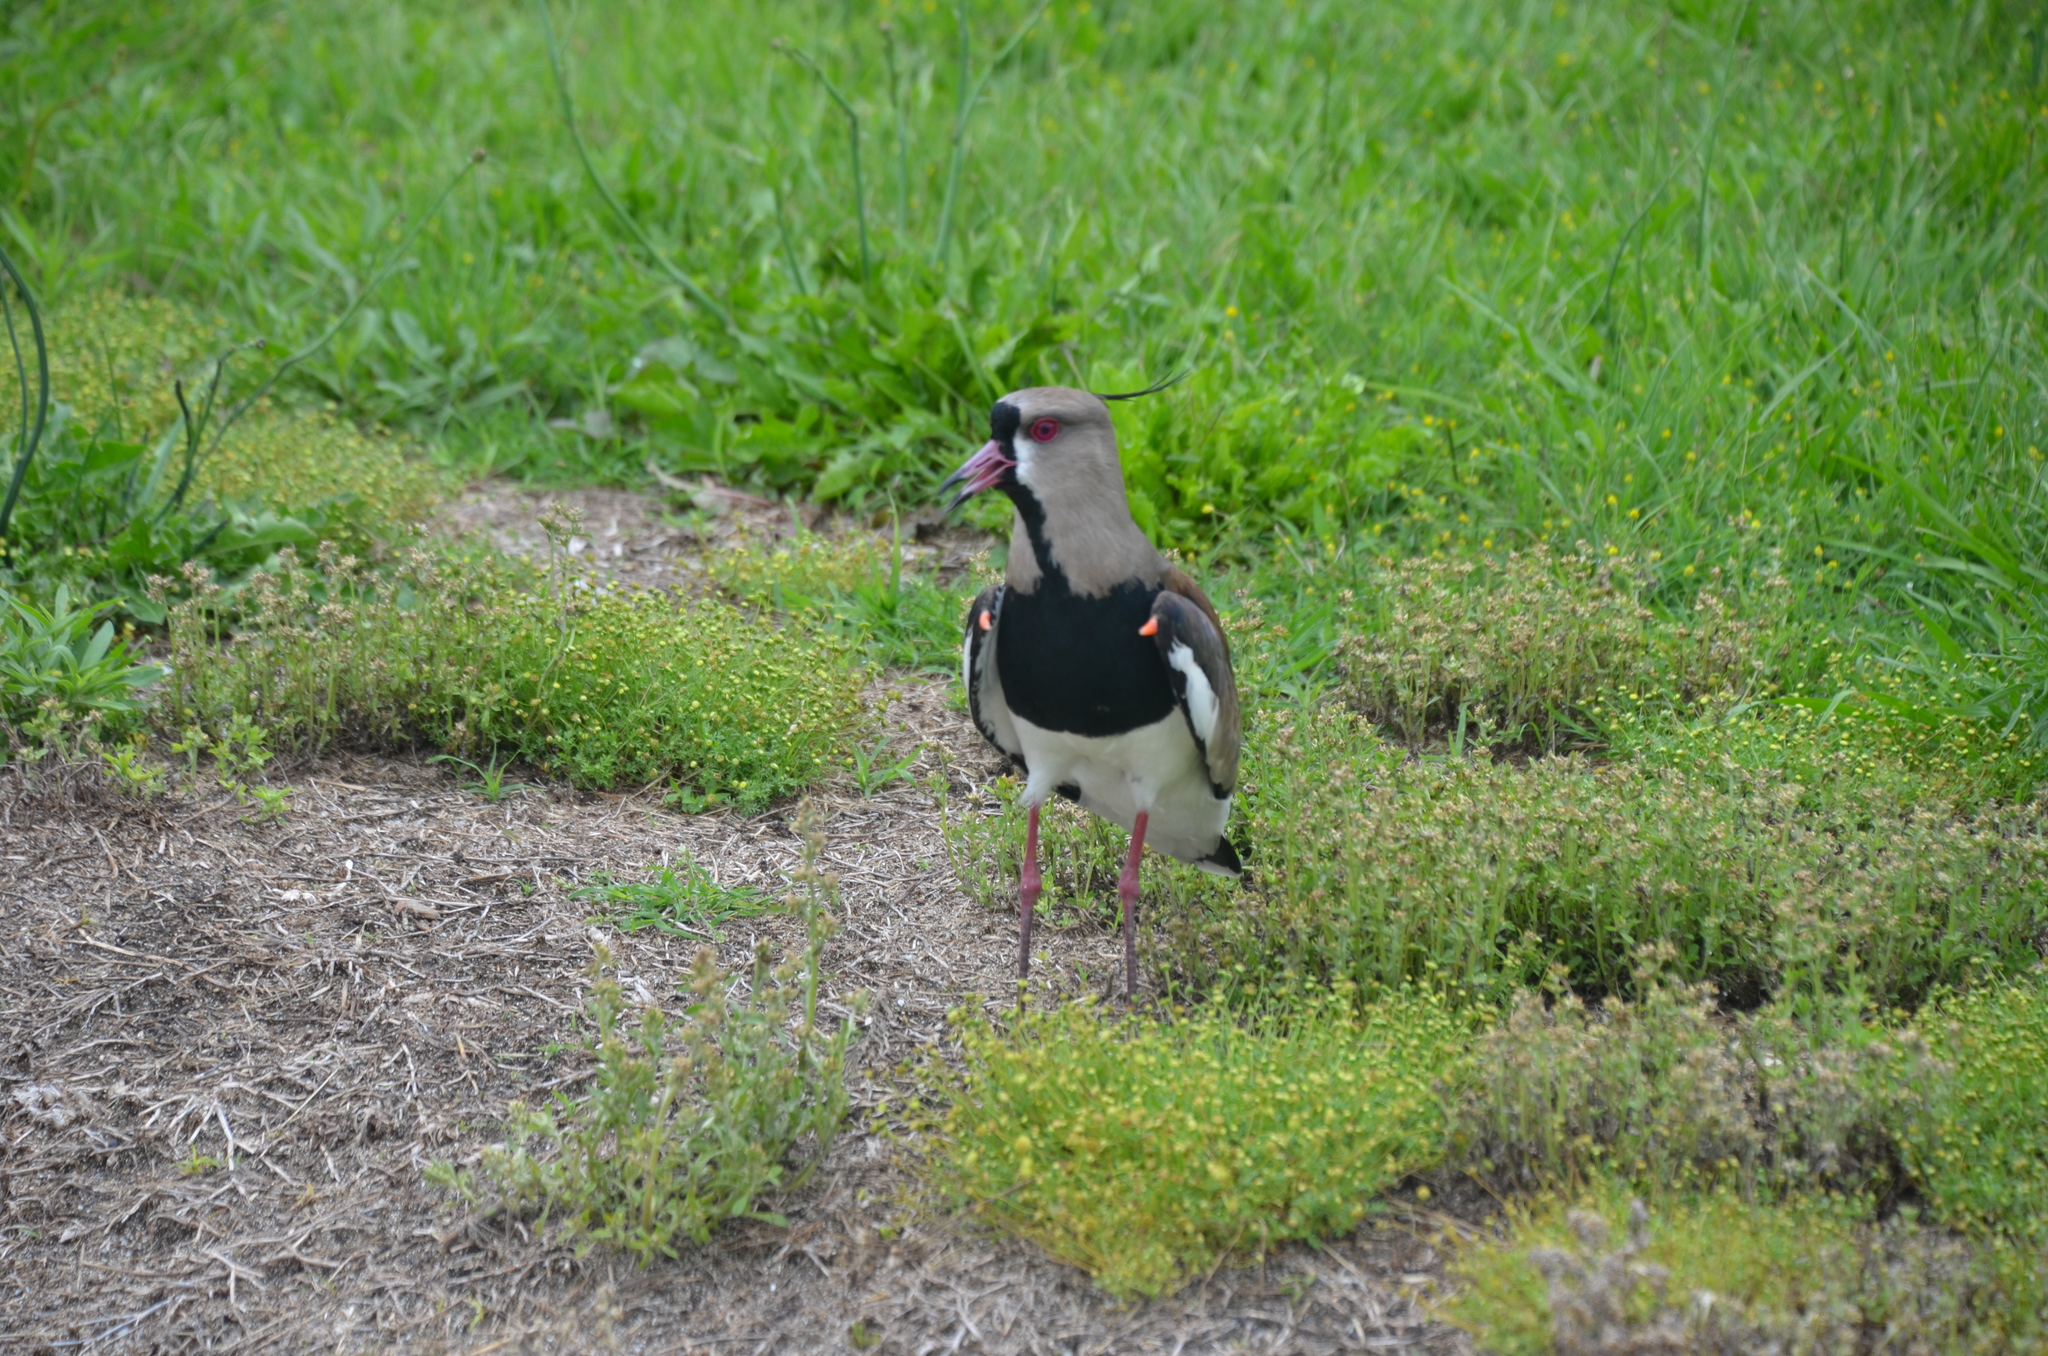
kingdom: Animalia
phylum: Chordata
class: Aves
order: Charadriiformes
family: Charadriidae
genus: Vanellus
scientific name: Vanellus chilensis
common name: Southern lapwing
